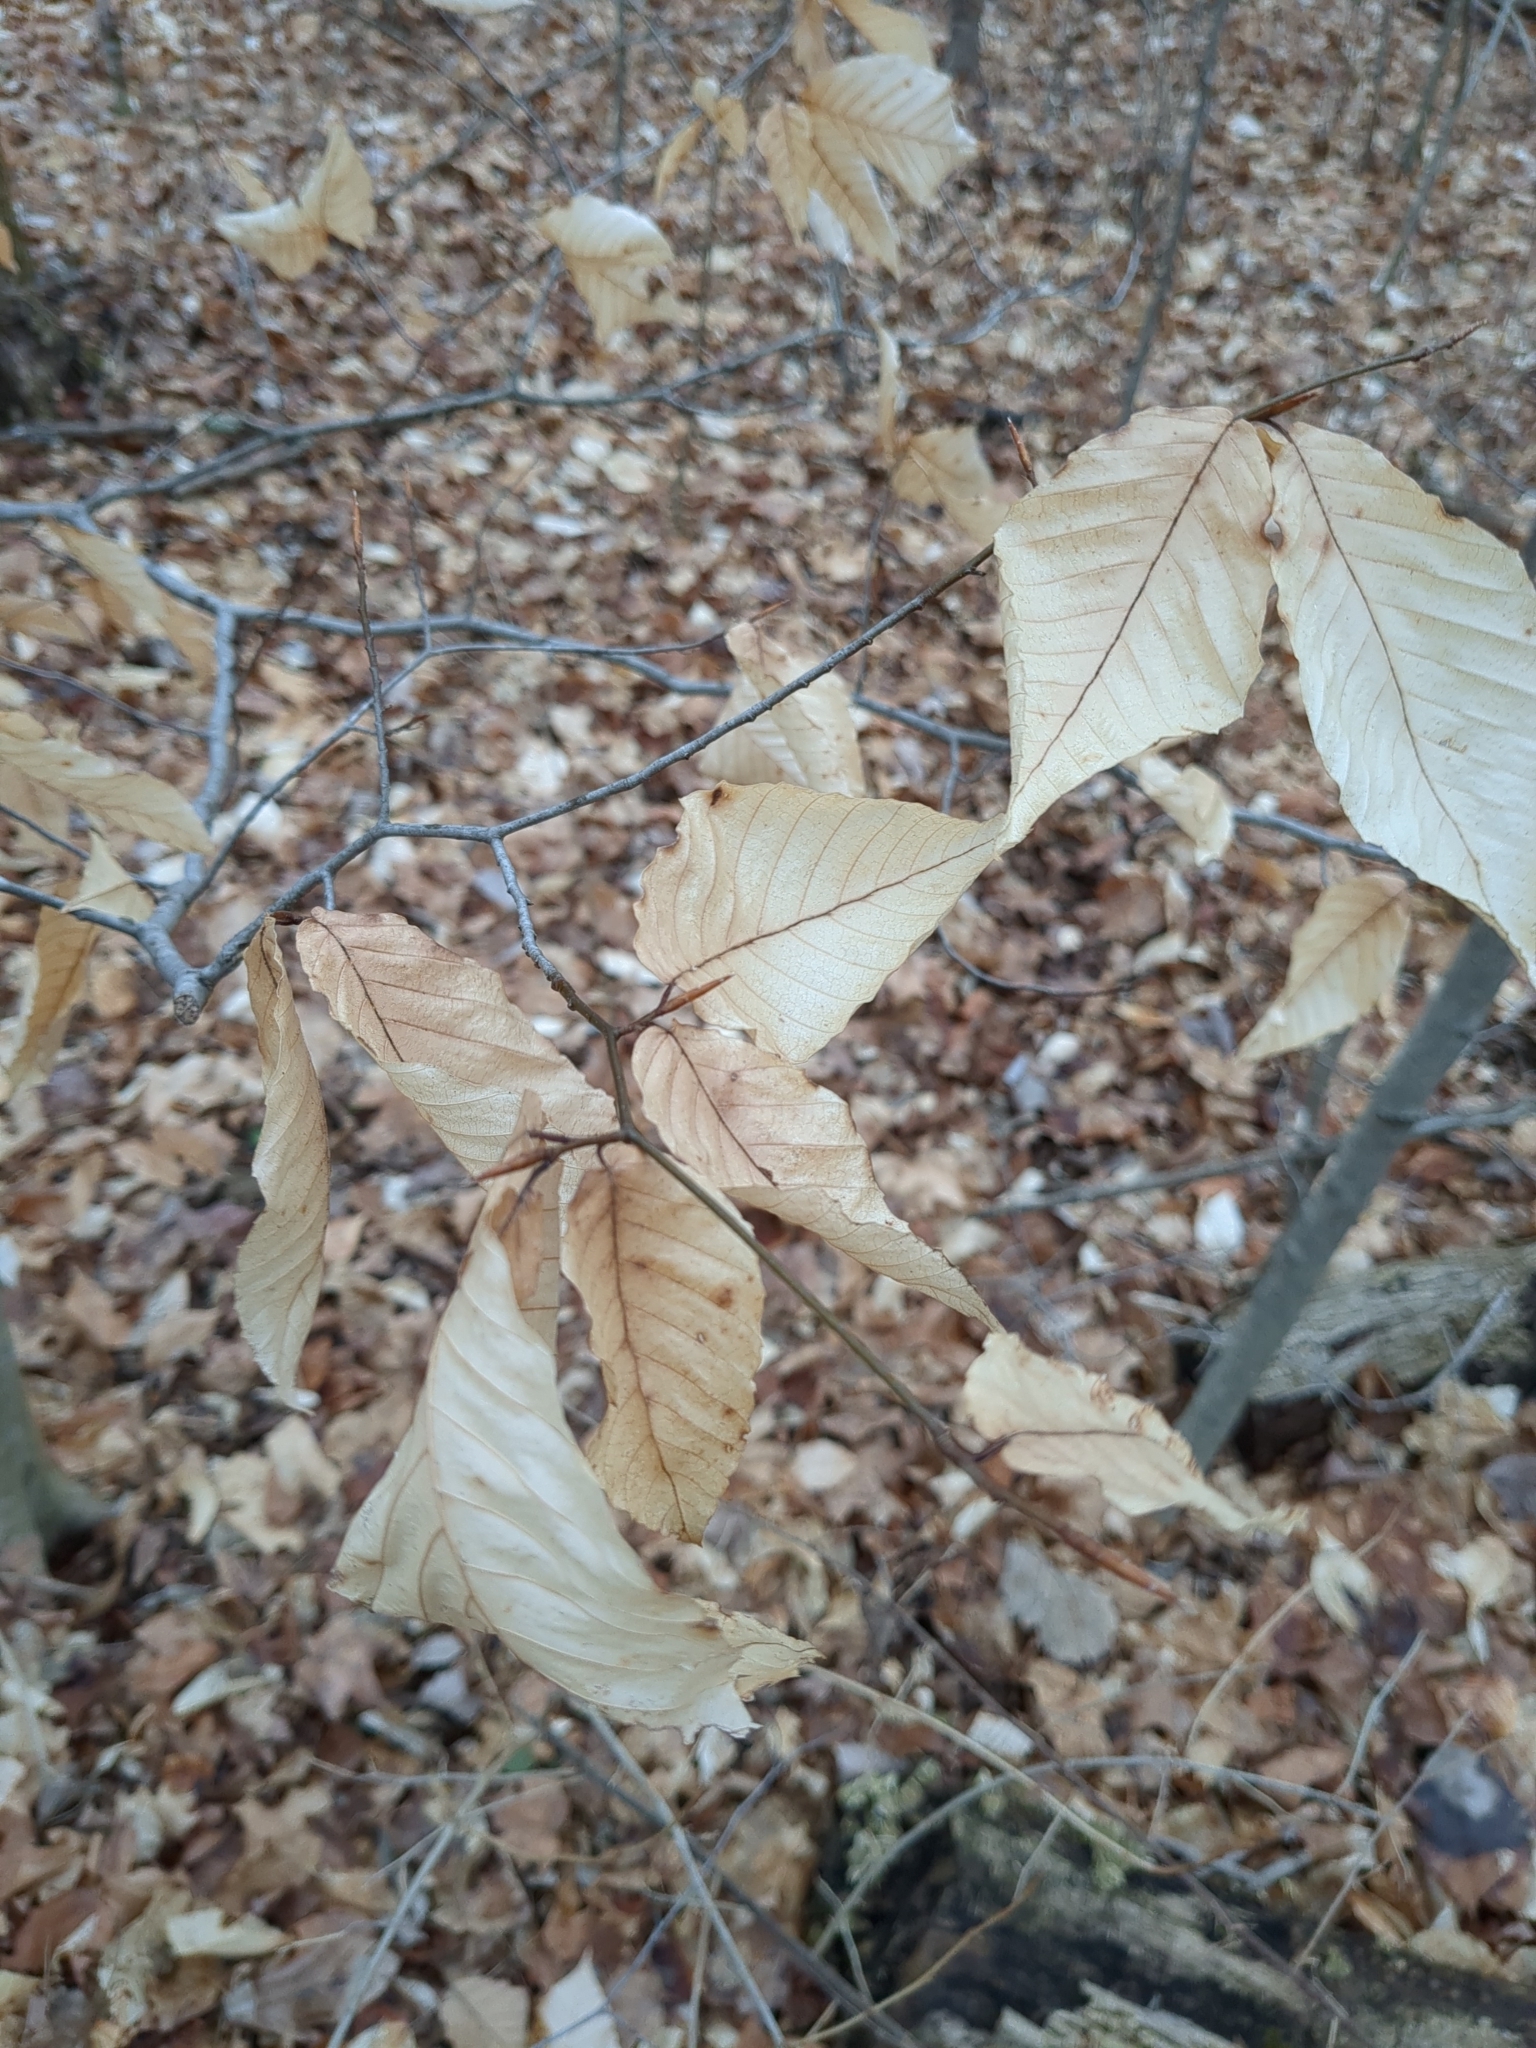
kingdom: Plantae
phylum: Tracheophyta
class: Magnoliopsida
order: Fagales
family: Fagaceae
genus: Fagus
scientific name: Fagus grandifolia
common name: American beech
